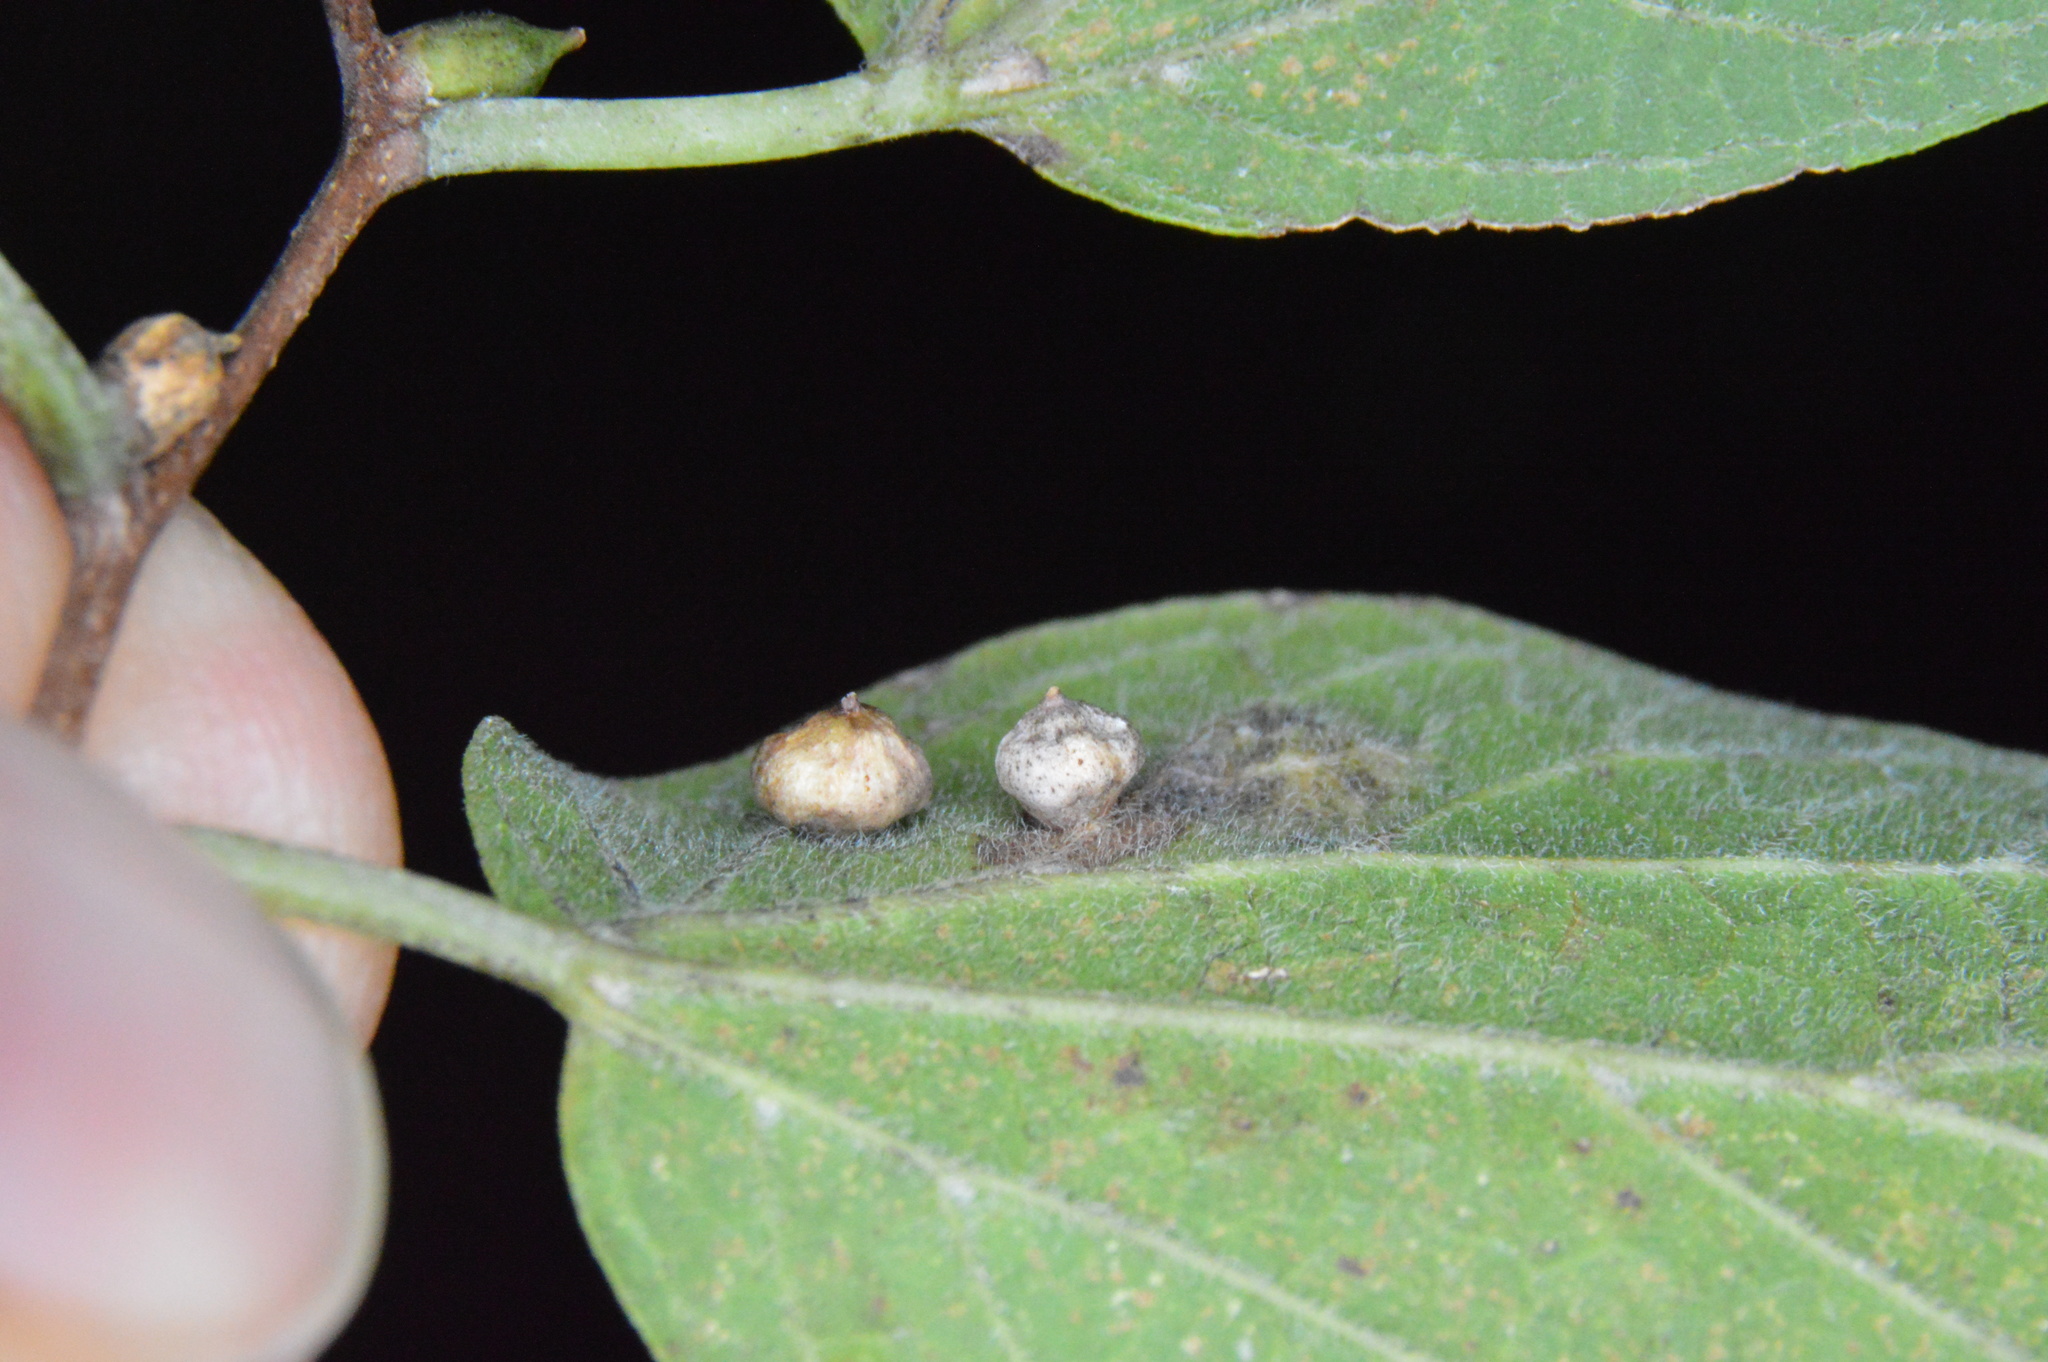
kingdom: Animalia
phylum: Arthropoda
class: Insecta
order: Diptera
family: Cecidomyiidae
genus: Celticecis
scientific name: Celticecis globosa
